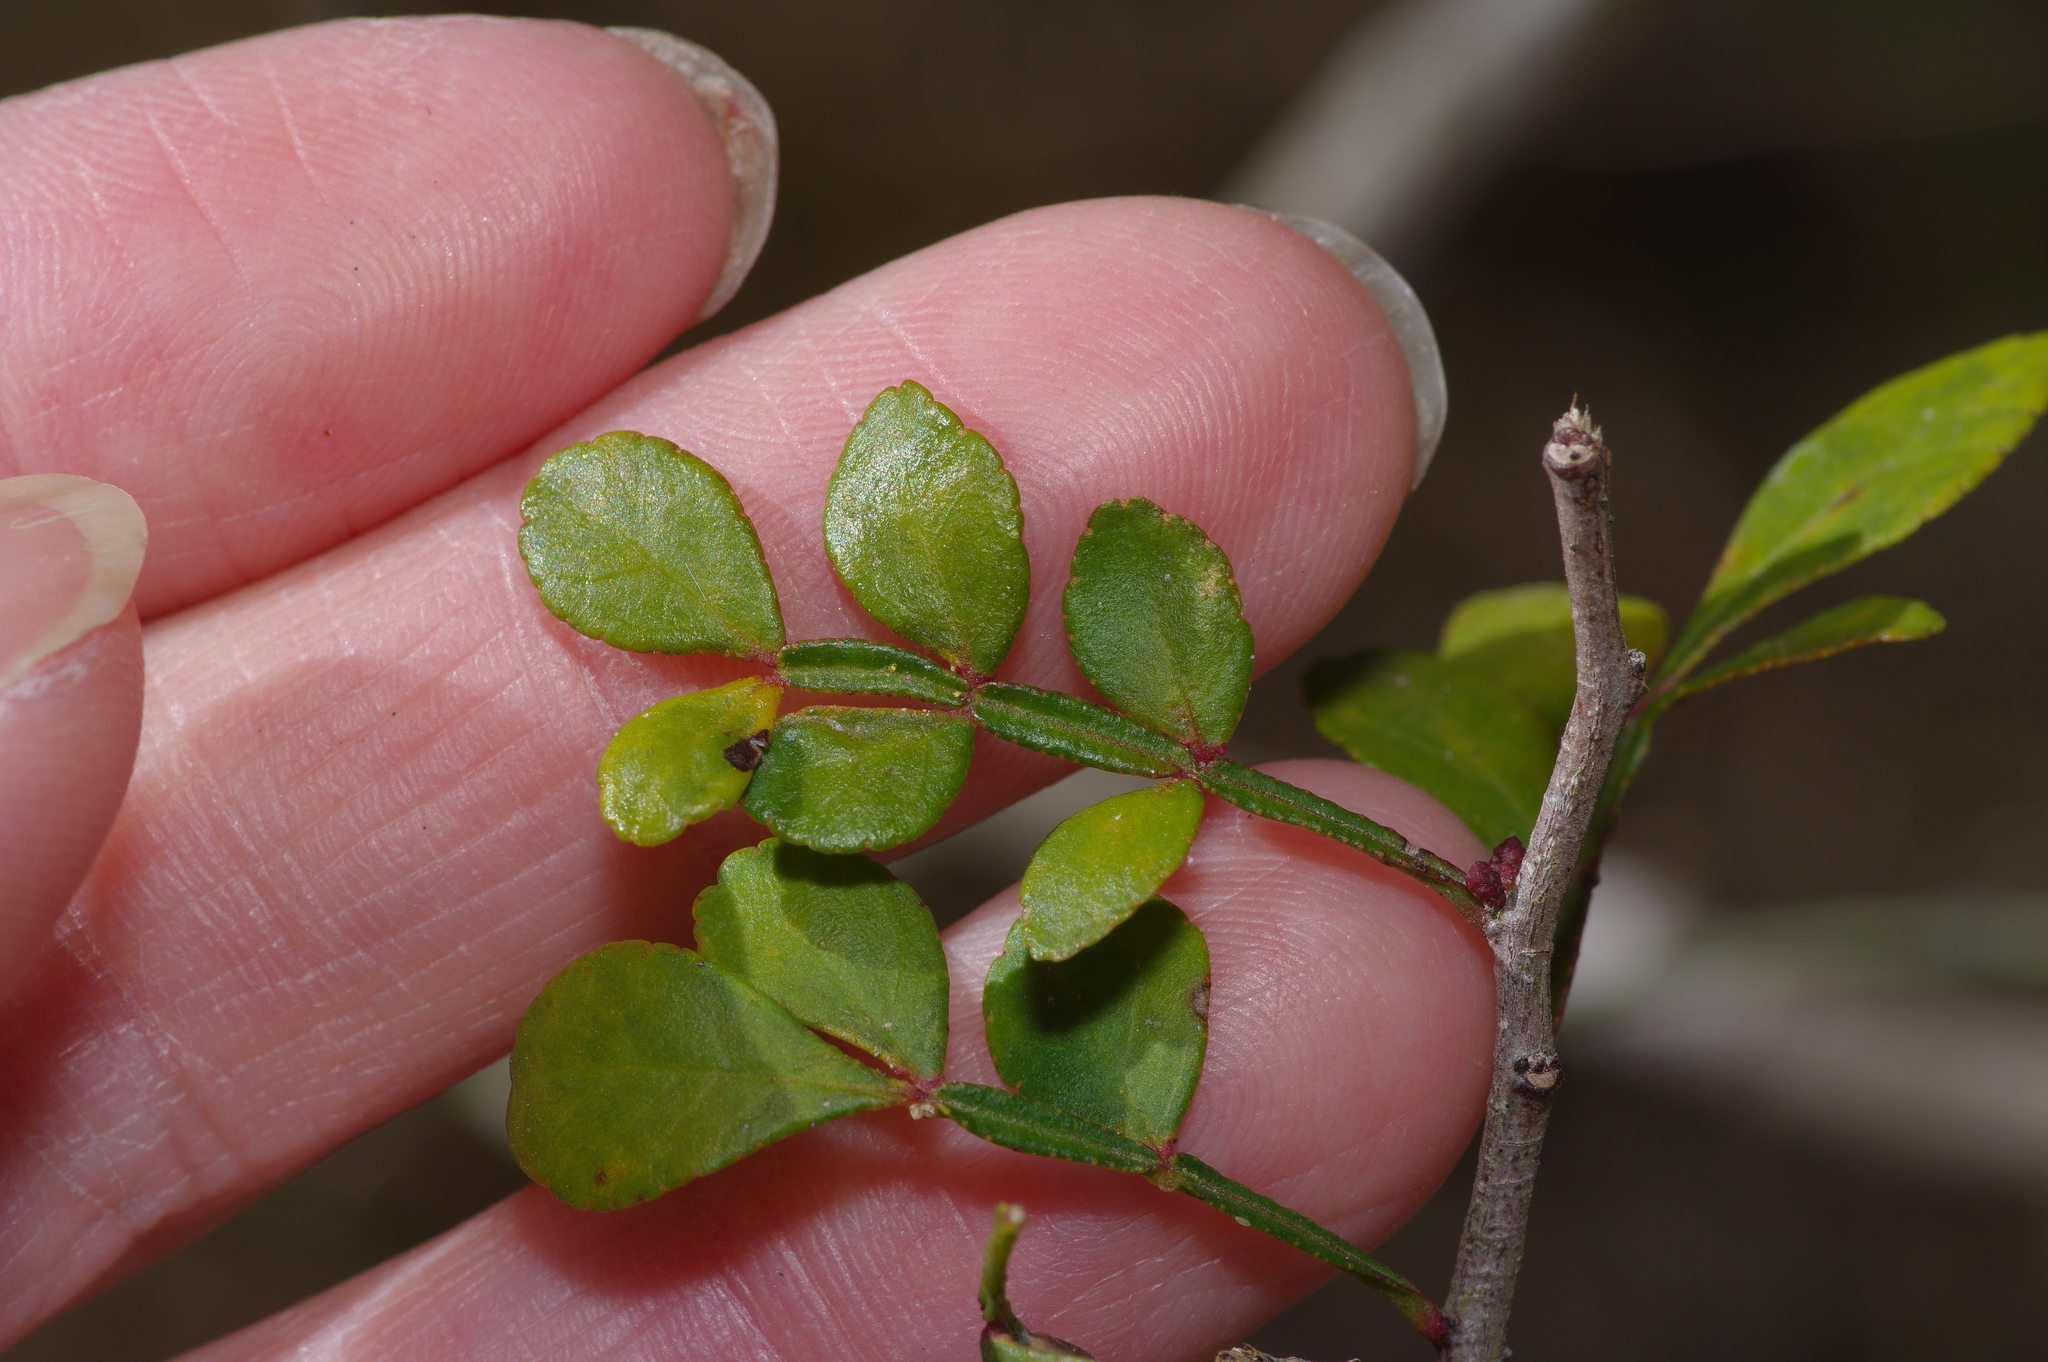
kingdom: Plantae
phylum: Tracheophyta
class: Magnoliopsida
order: Sapindales
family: Rutaceae
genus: Zanthoxylum
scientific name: Zanthoxylum fagara
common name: Lime prickly-ash
